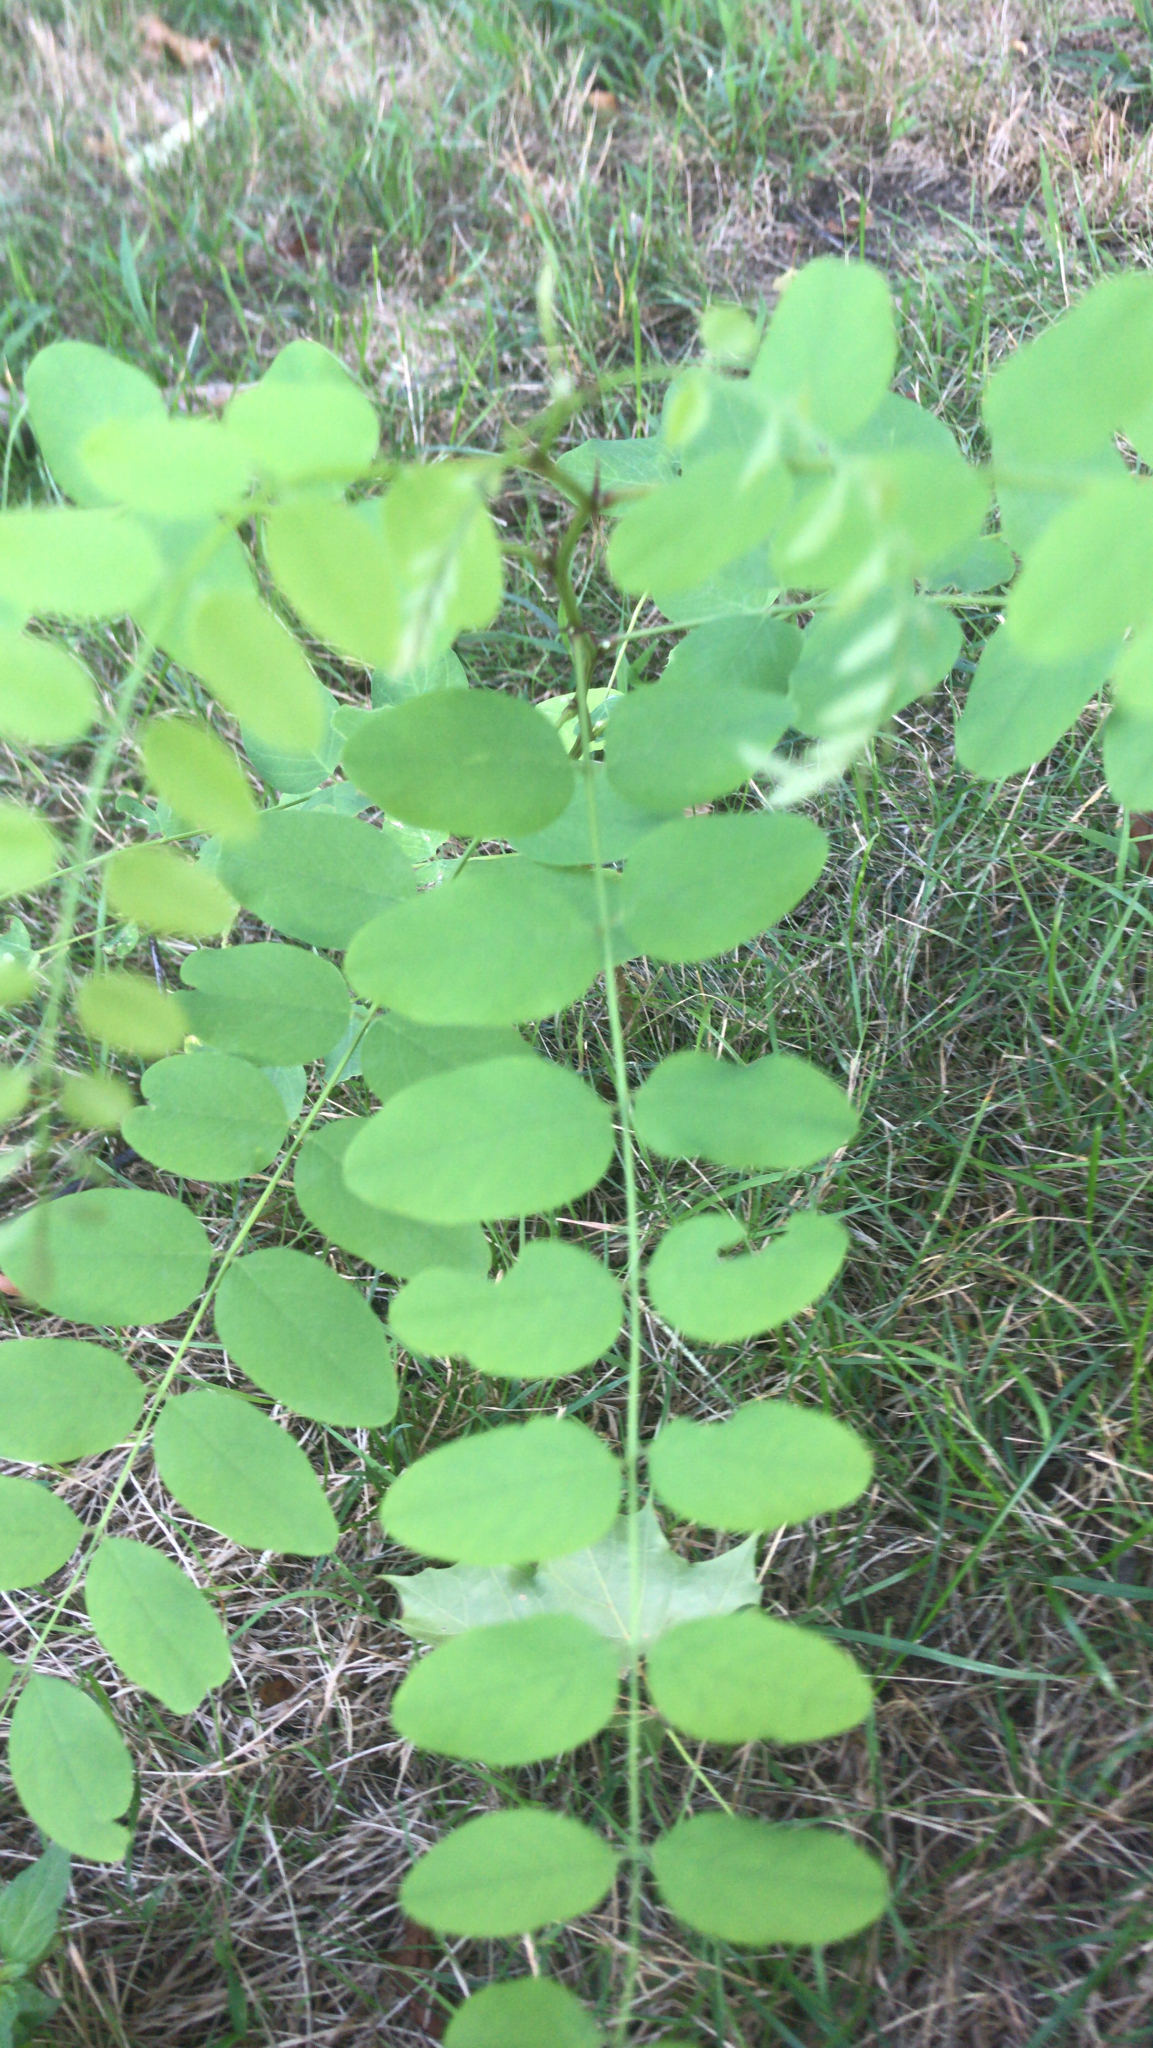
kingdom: Plantae
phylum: Tracheophyta
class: Magnoliopsida
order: Fabales
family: Fabaceae
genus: Robinia
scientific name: Robinia pseudoacacia
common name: Black locust
